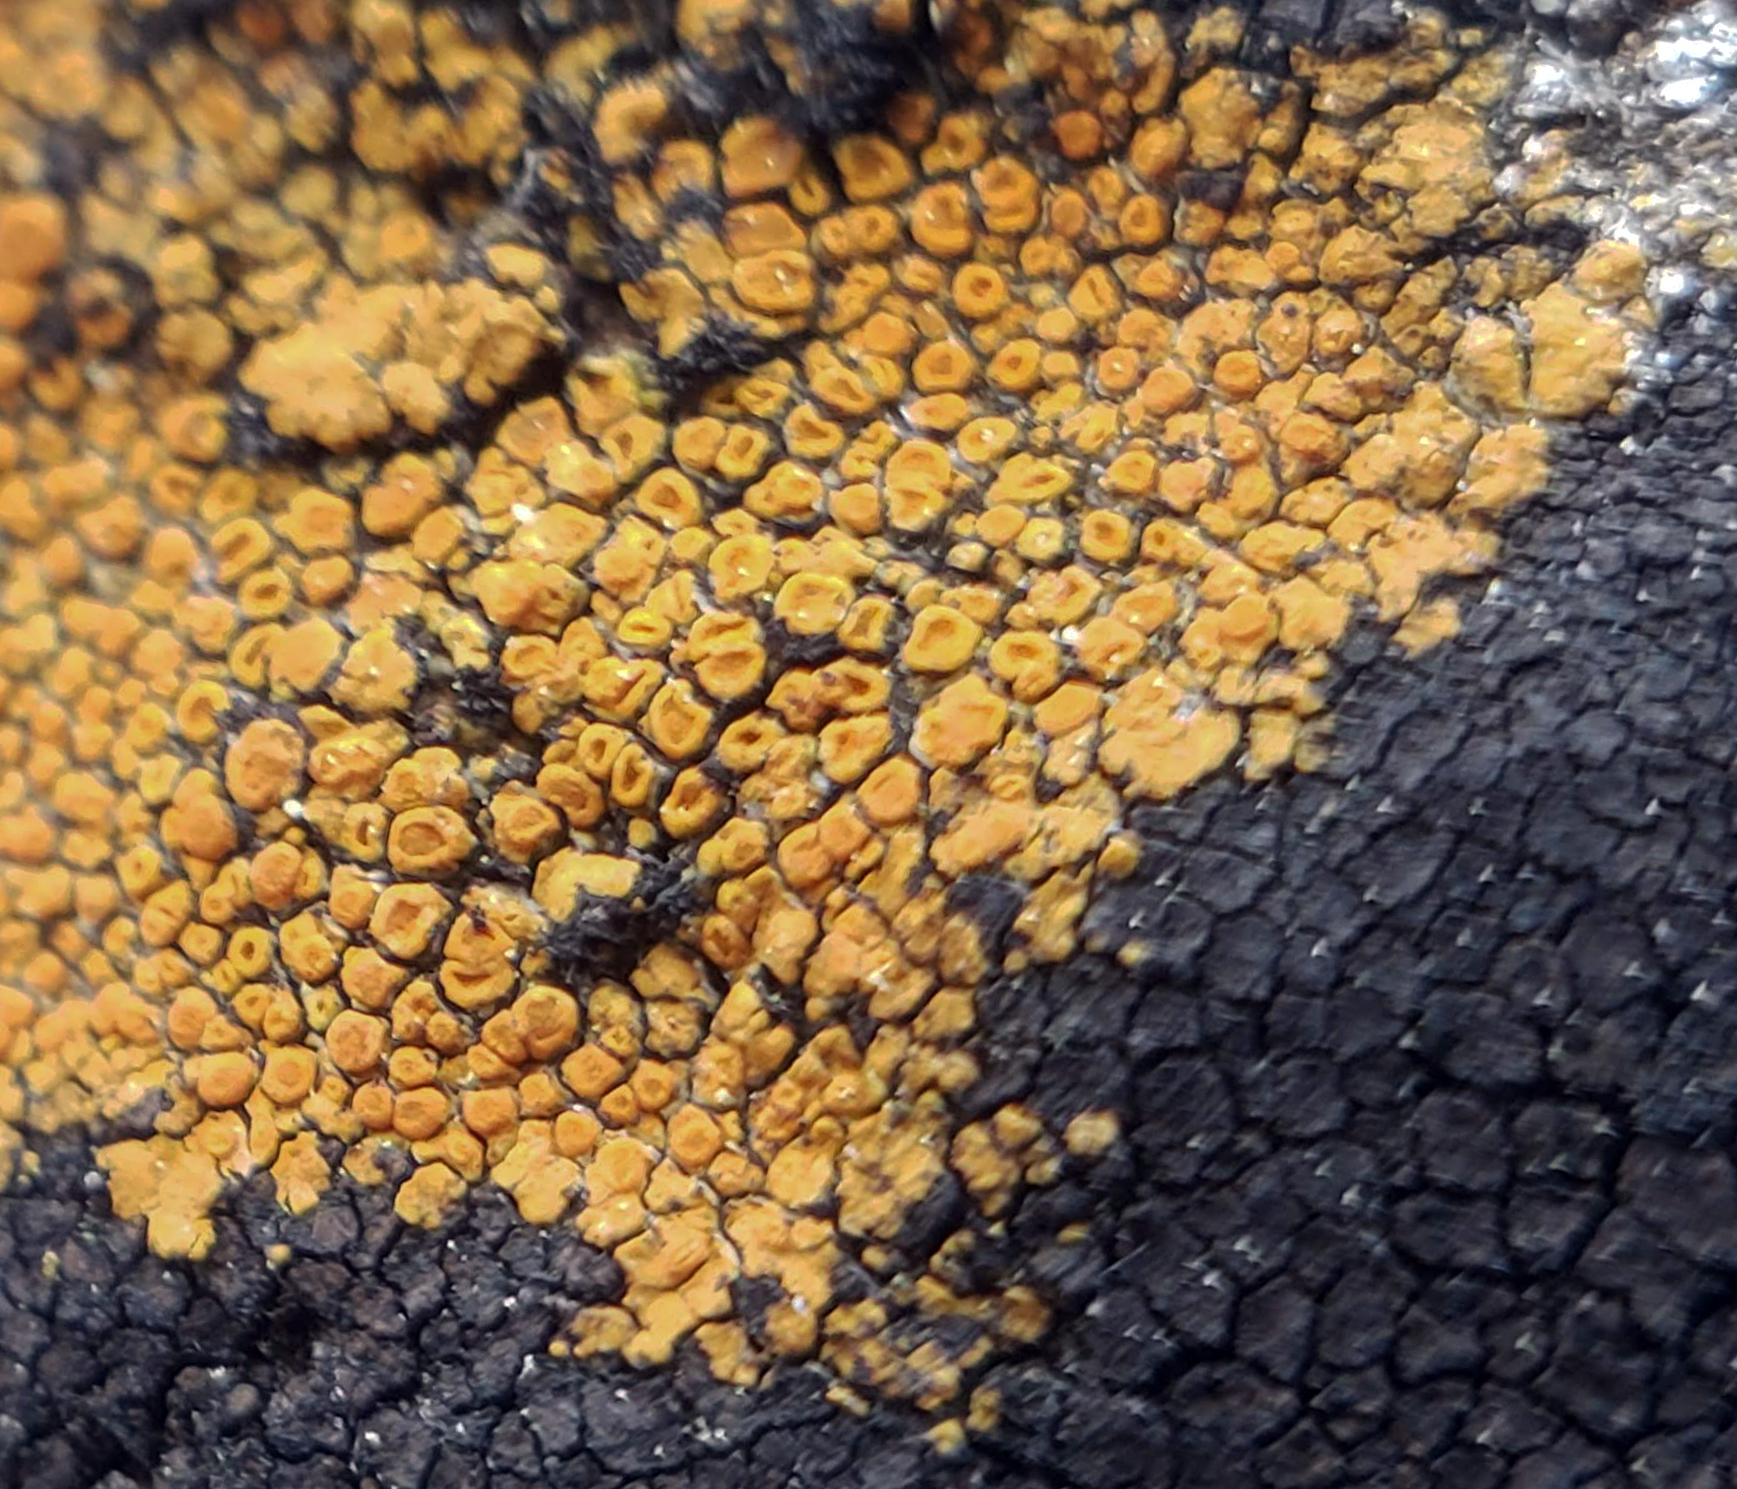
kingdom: Fungi
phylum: Ascomycota
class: Lecanoromycetes
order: Teloschistales
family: Teloschistaceae
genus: Squamulea
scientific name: Squamulea subsoluta
